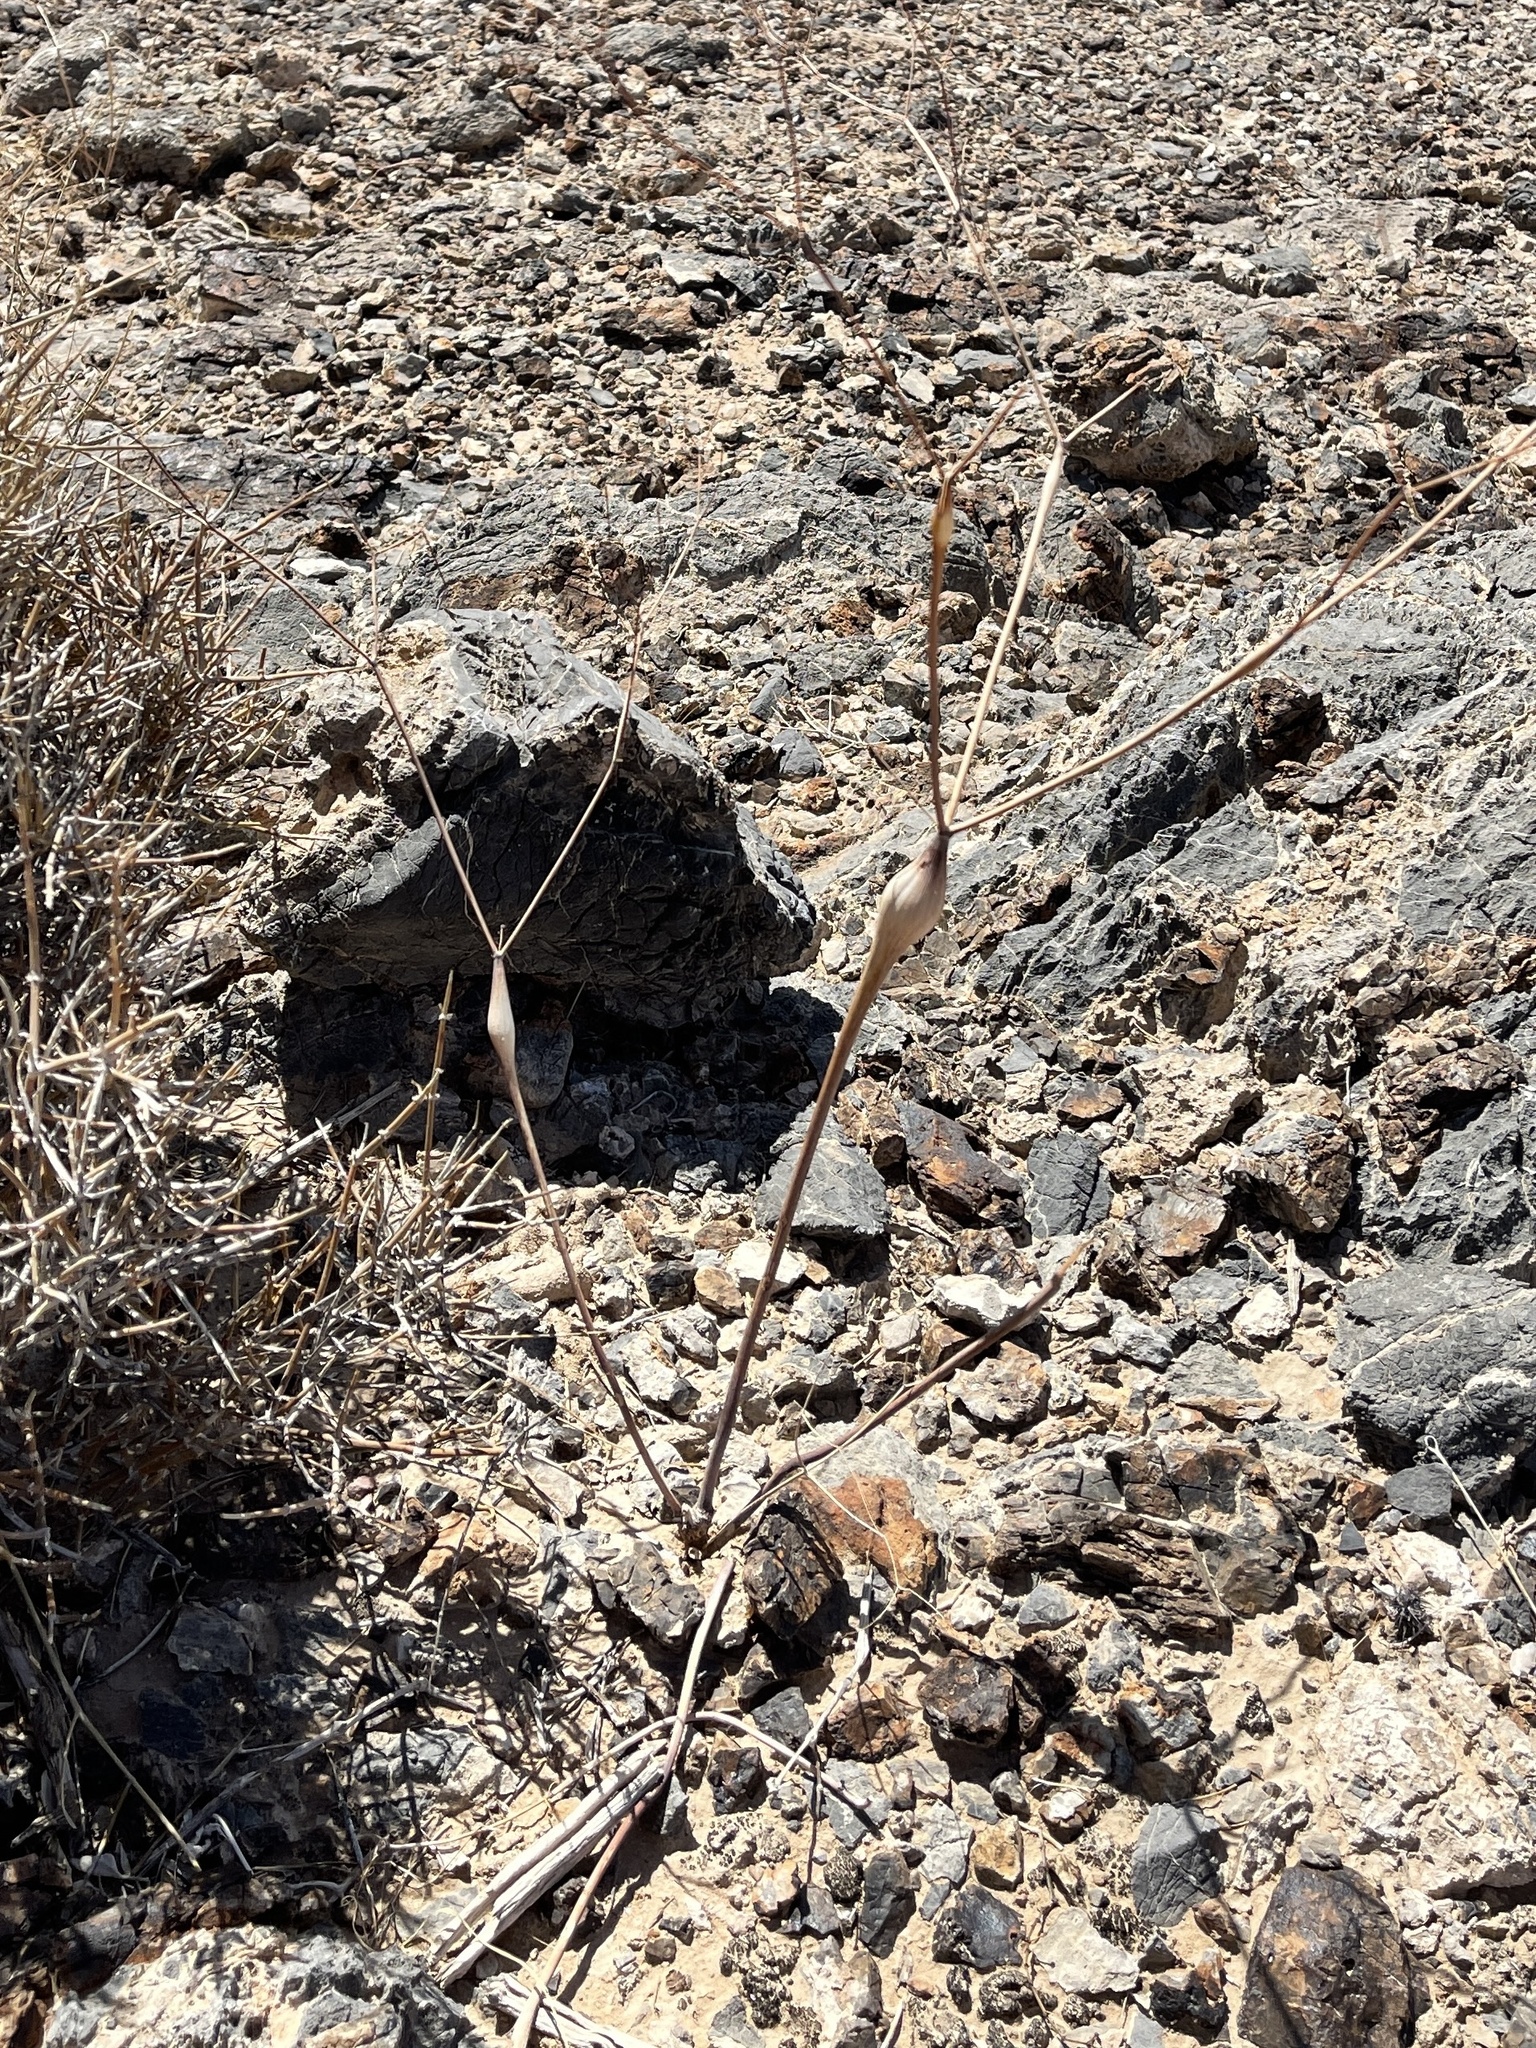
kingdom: Plantae
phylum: Tracheophyta
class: Magnoliopsida
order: Caryophyllales
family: Polygonaceae
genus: Eriogonum
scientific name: Eriogonum inflatum
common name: Desert trumpet
